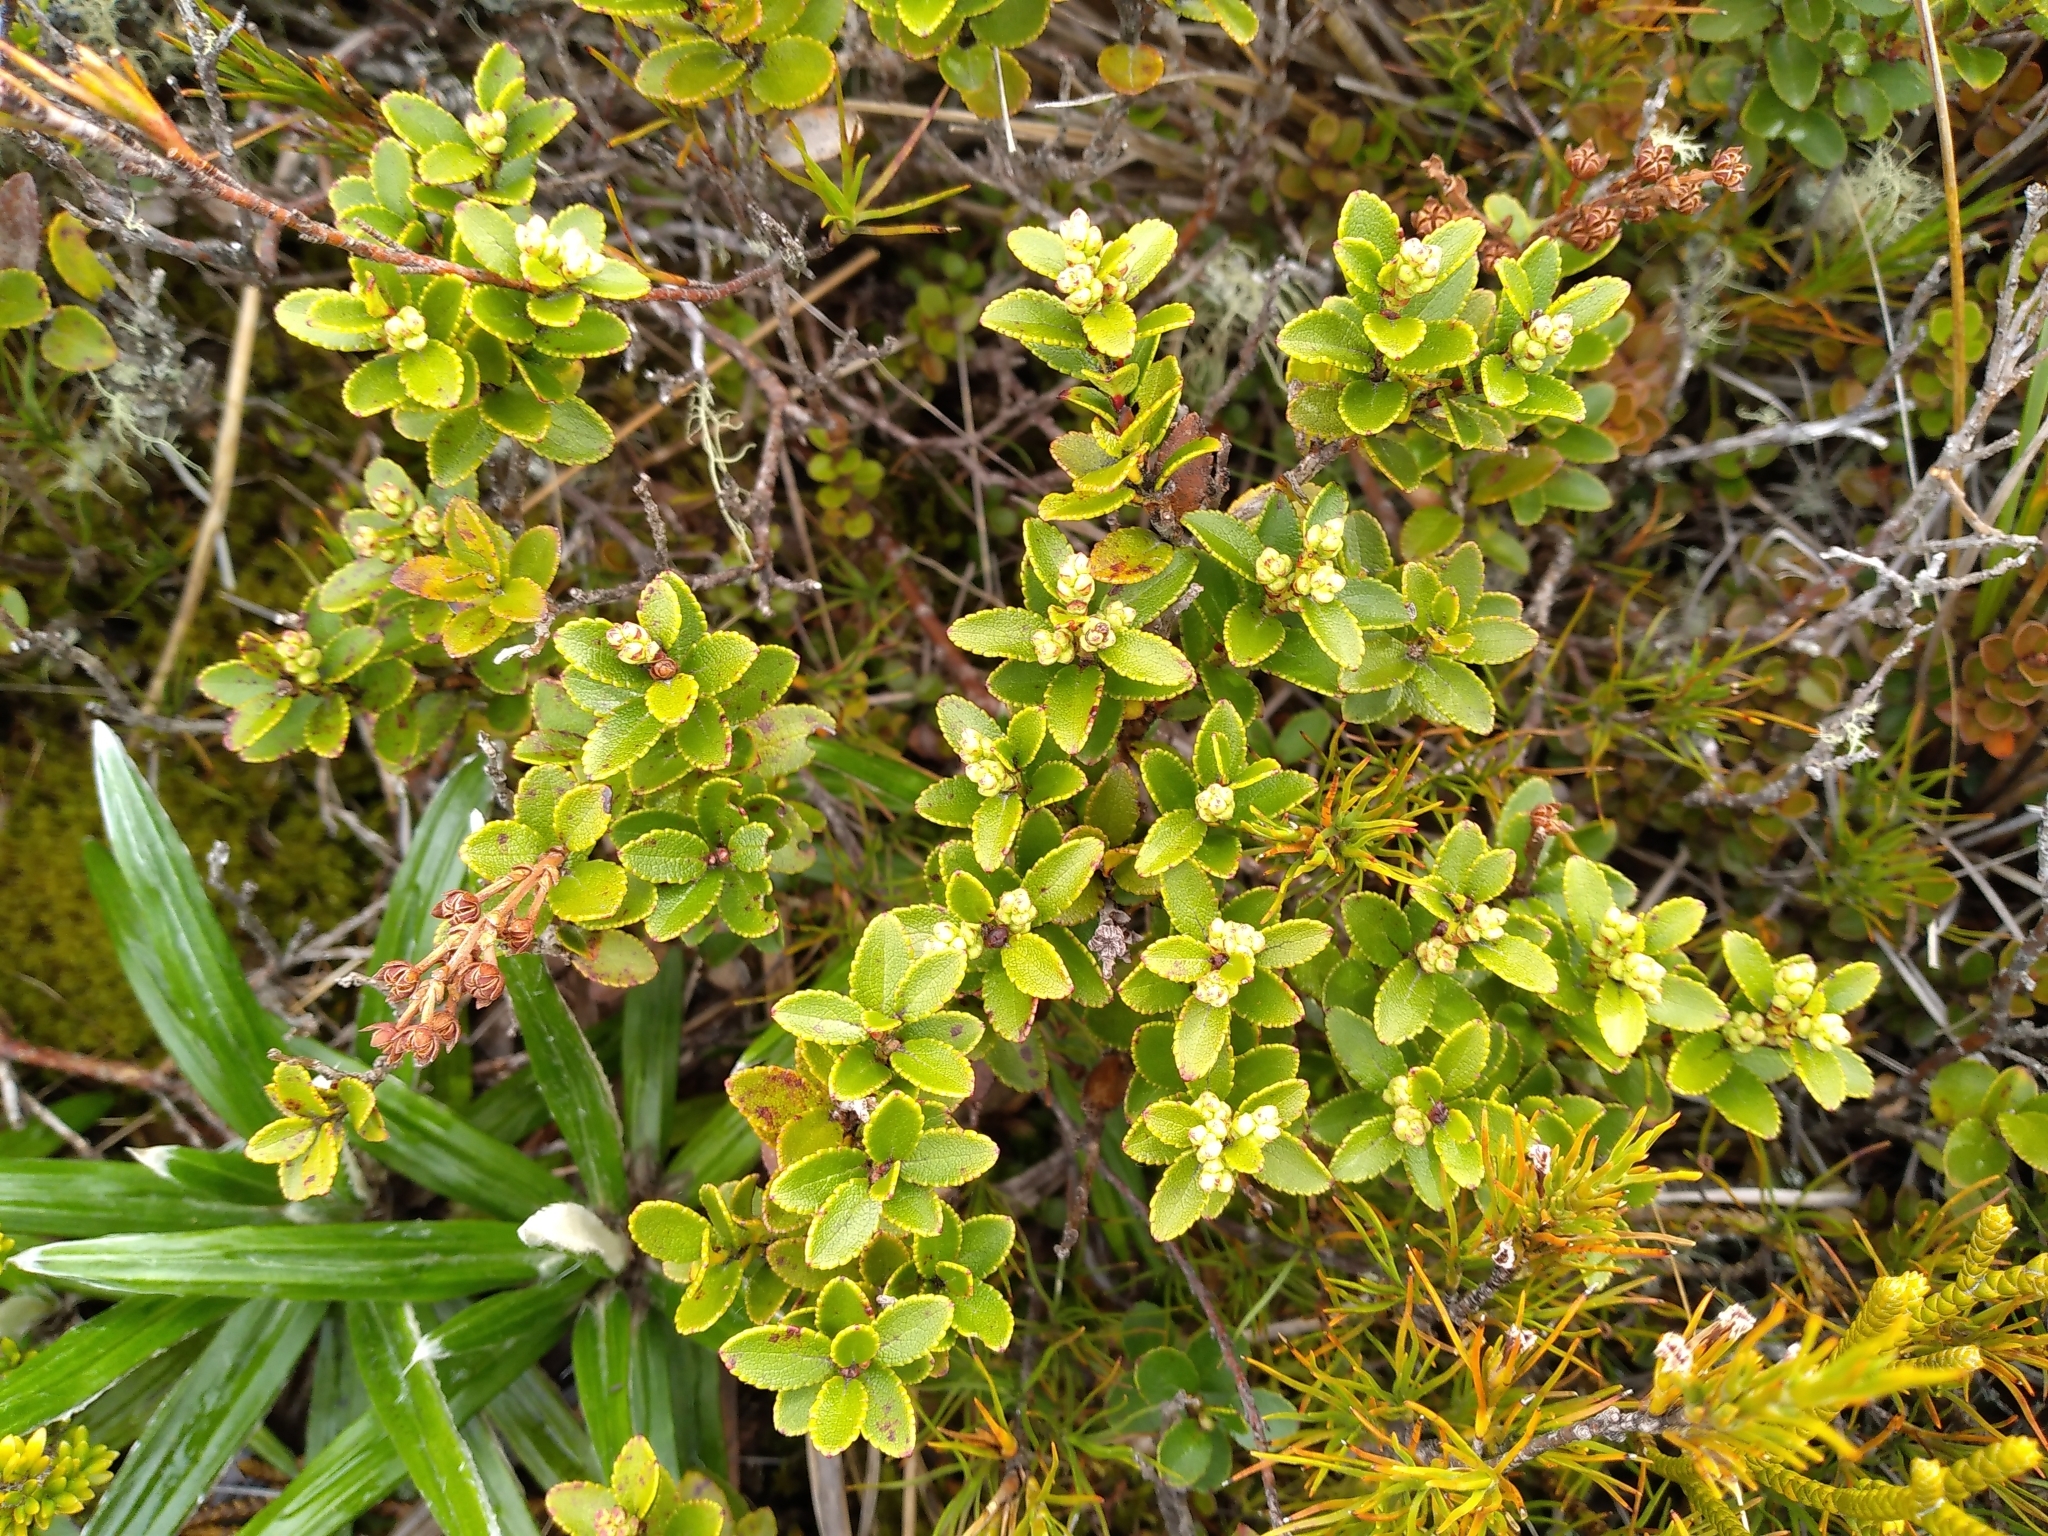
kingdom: Plantae
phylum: Tracheophyta
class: Magnoliopsida
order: Ericales
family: Ericaceae
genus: Gaultheria
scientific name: Gaultheria crassa
